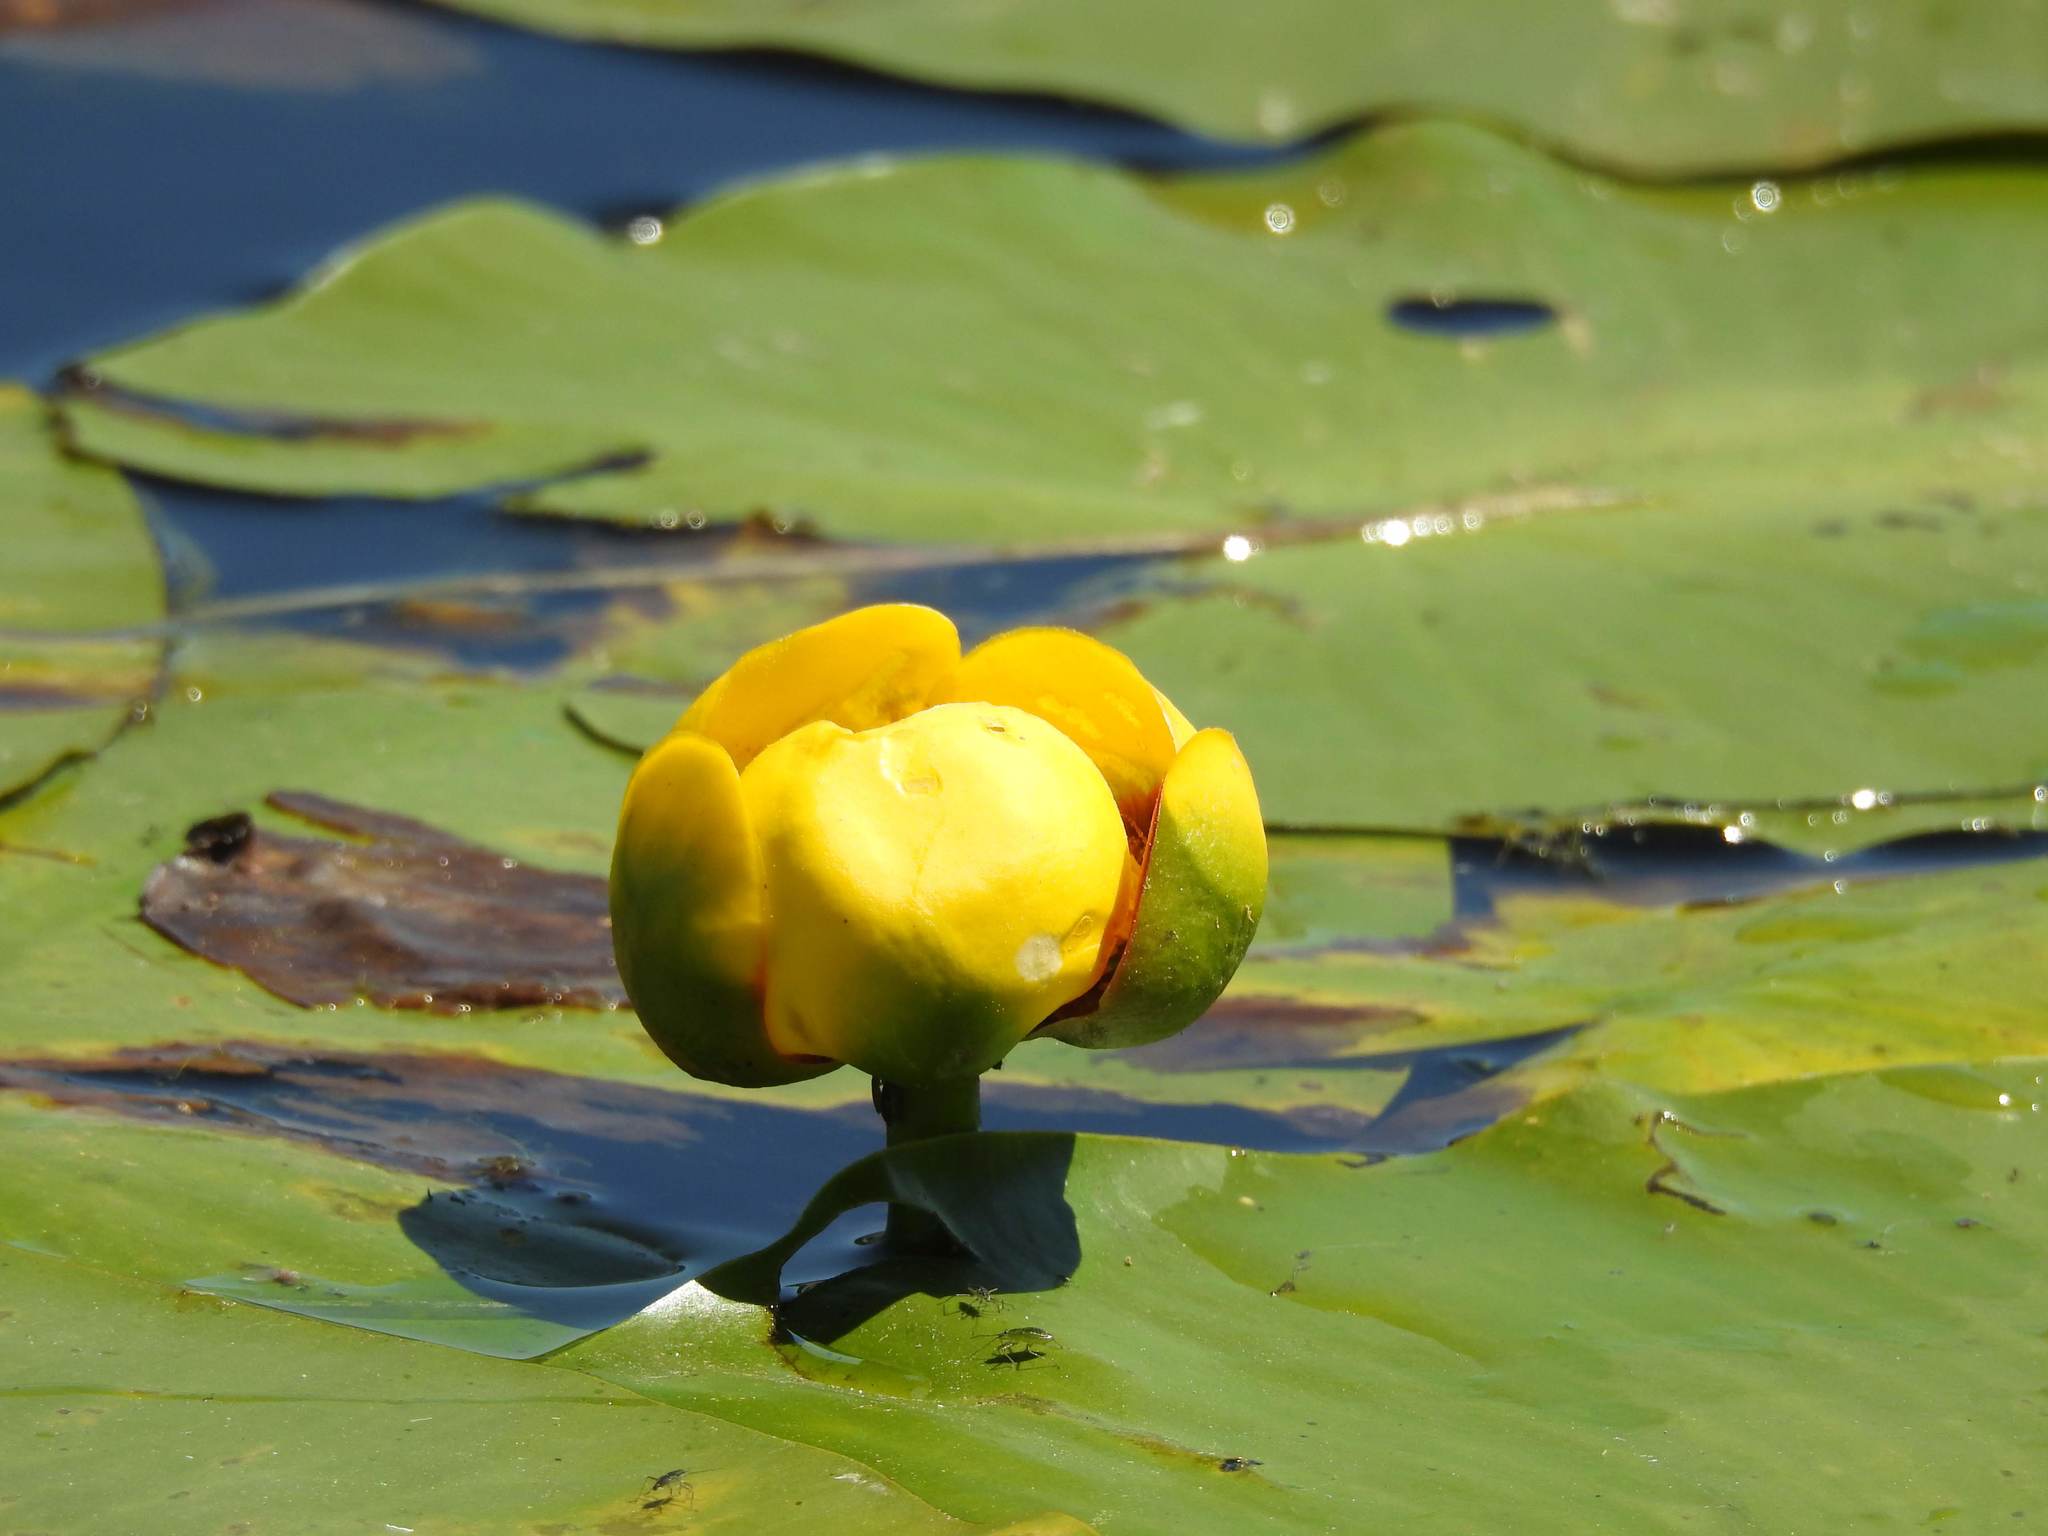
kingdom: Plantae
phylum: Tracheophyta
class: Magnoliopsida
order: Nymphaeales
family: Nymphaeaceae
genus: Nuphar
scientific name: Nuphar variegata
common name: Beaver-root
